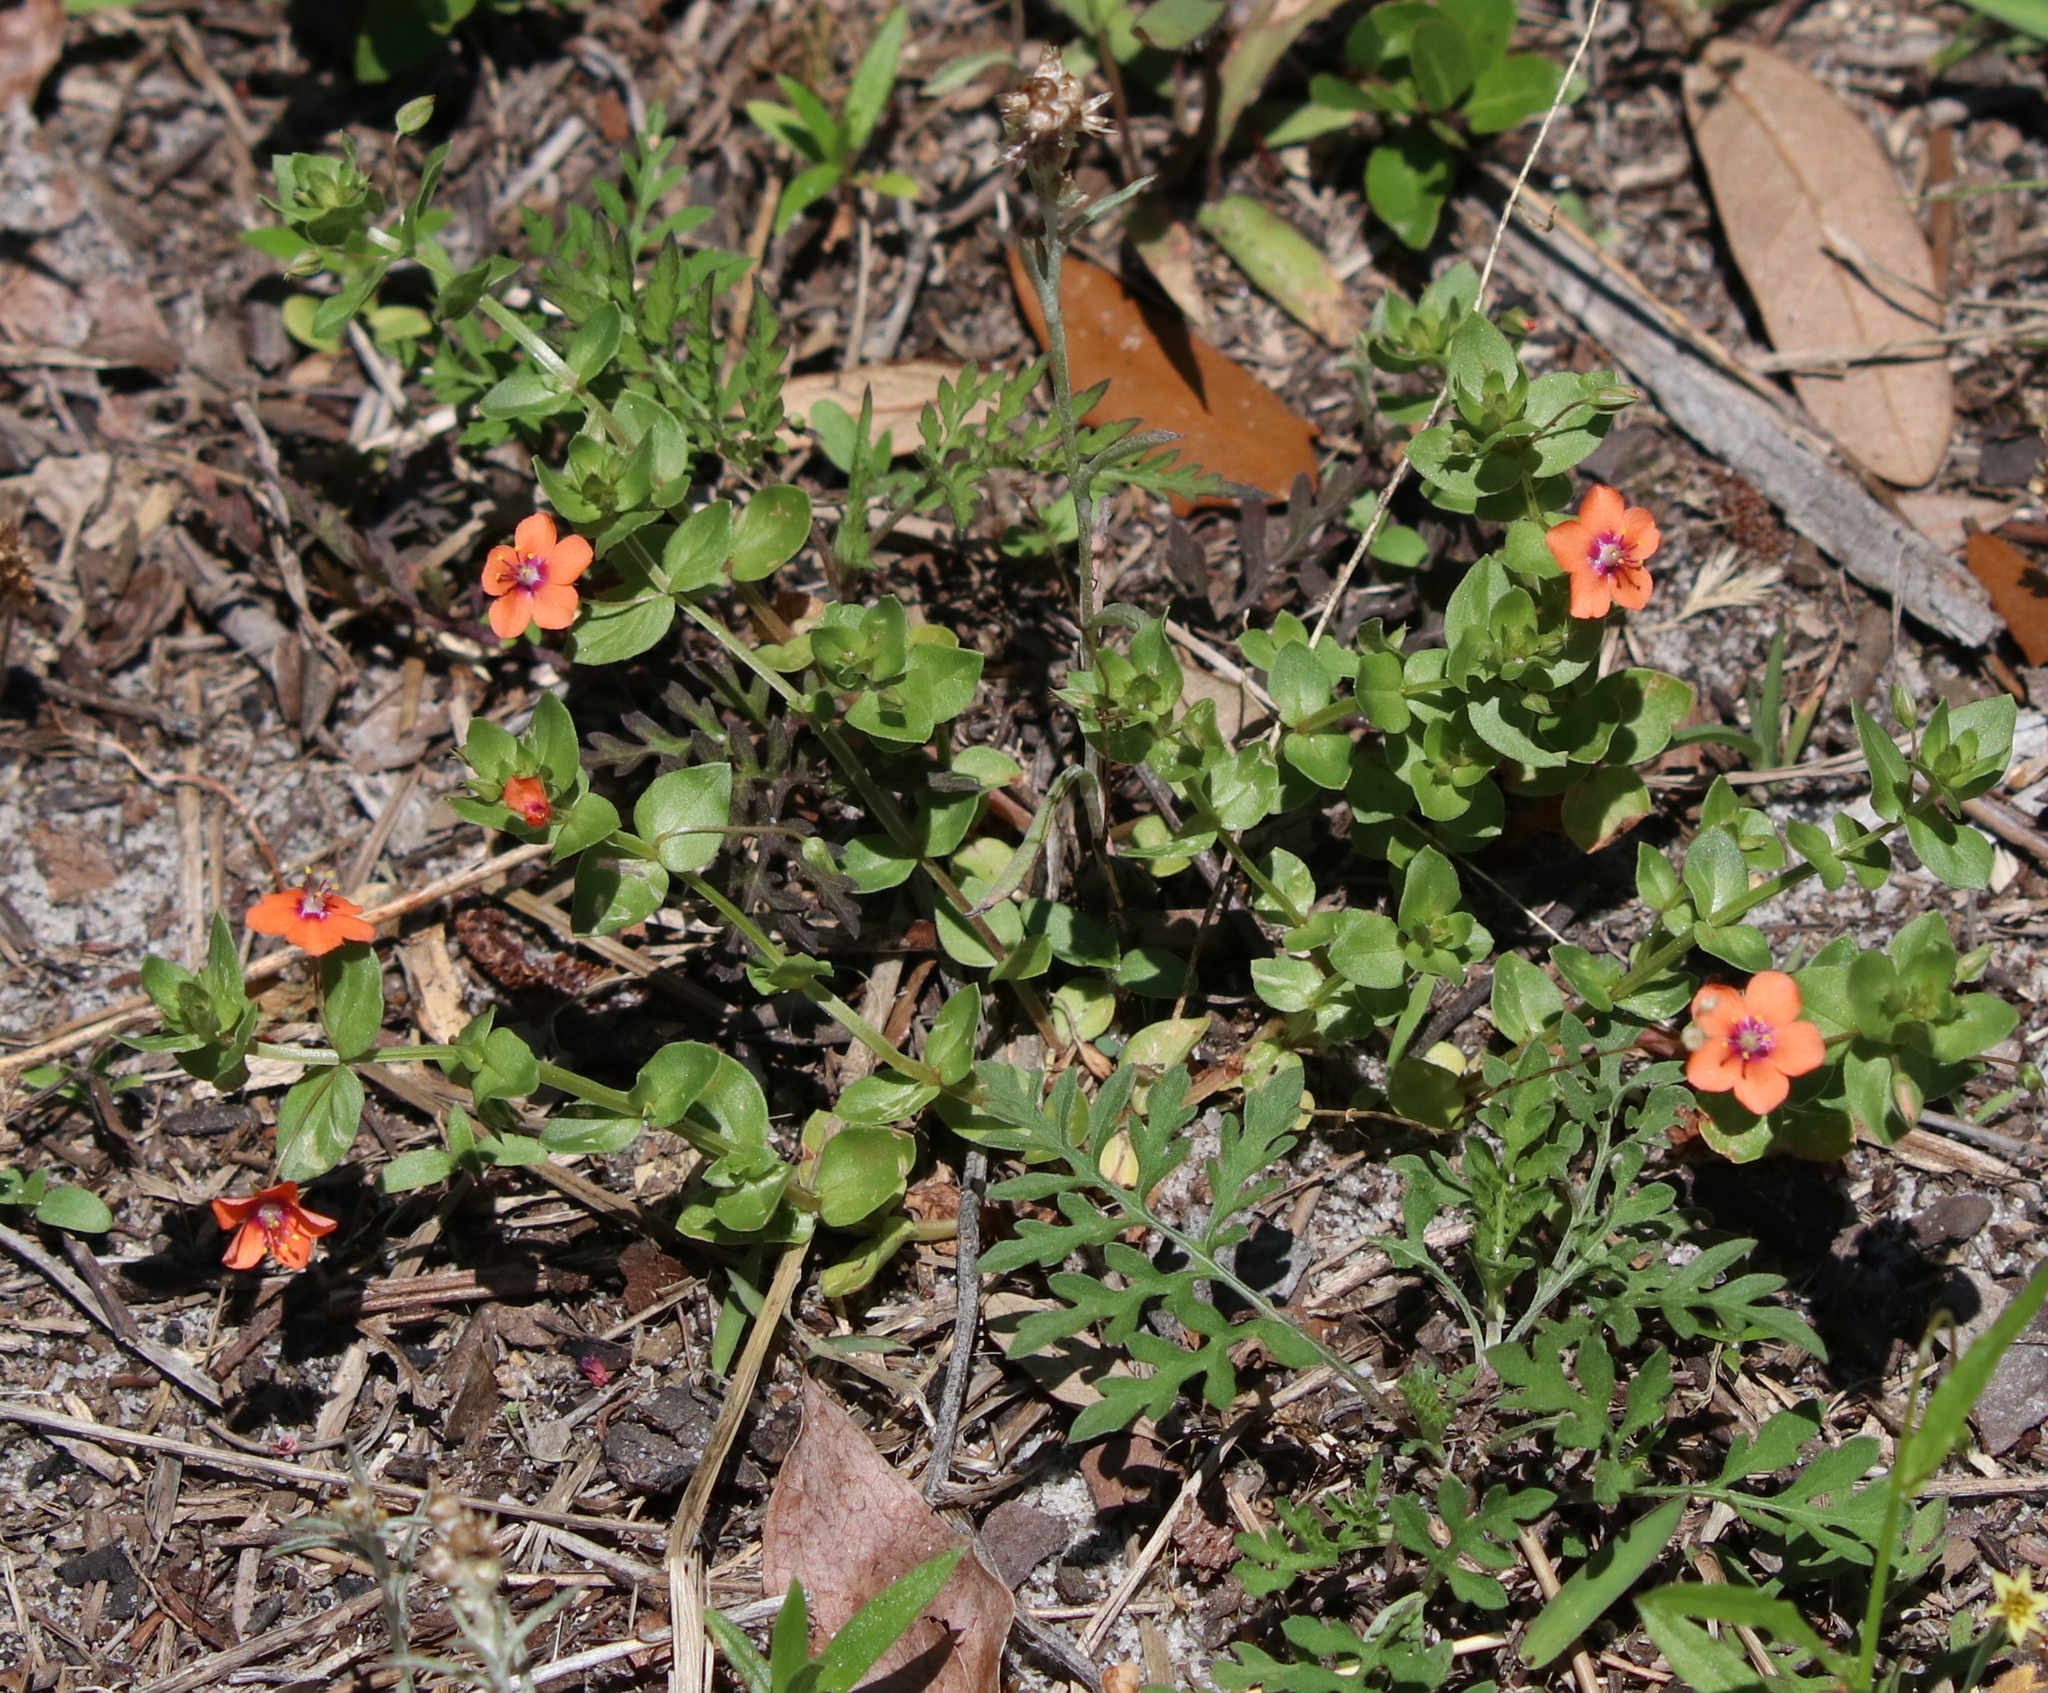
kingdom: Plantae
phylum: Tracheophyta
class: Magnoliopsida
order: Ericales
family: Primulaceae
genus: Lysimachia
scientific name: Lysimachia arvensis
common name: Scarlet pimpernel
